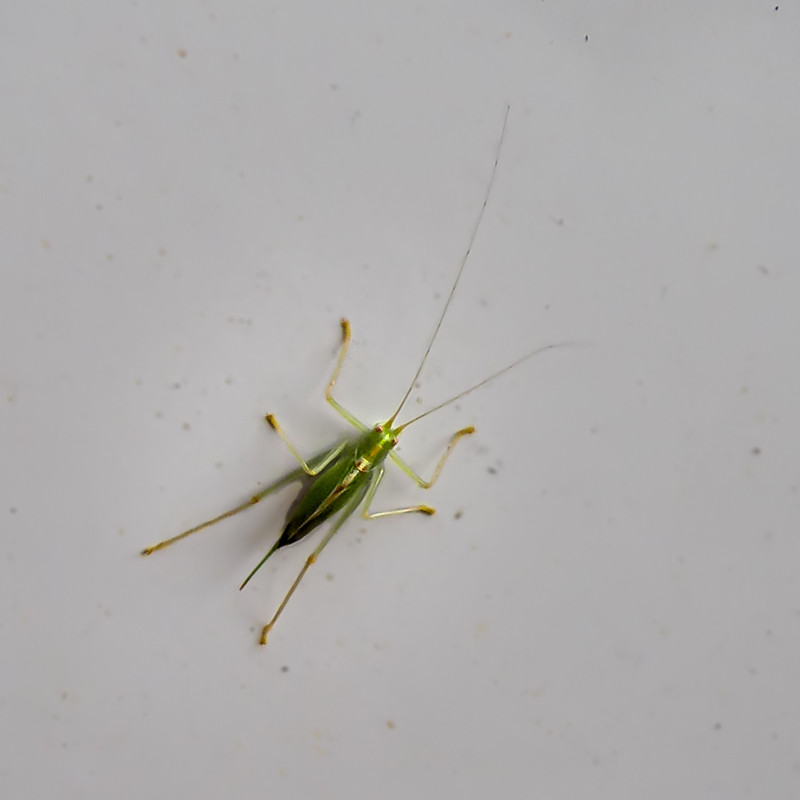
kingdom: Animalia
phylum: Arthropoda
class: Insecta
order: Orthoptera
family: Tettigoniidae
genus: Meconema
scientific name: Meconema thalassinum
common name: Oak bush-cricket
